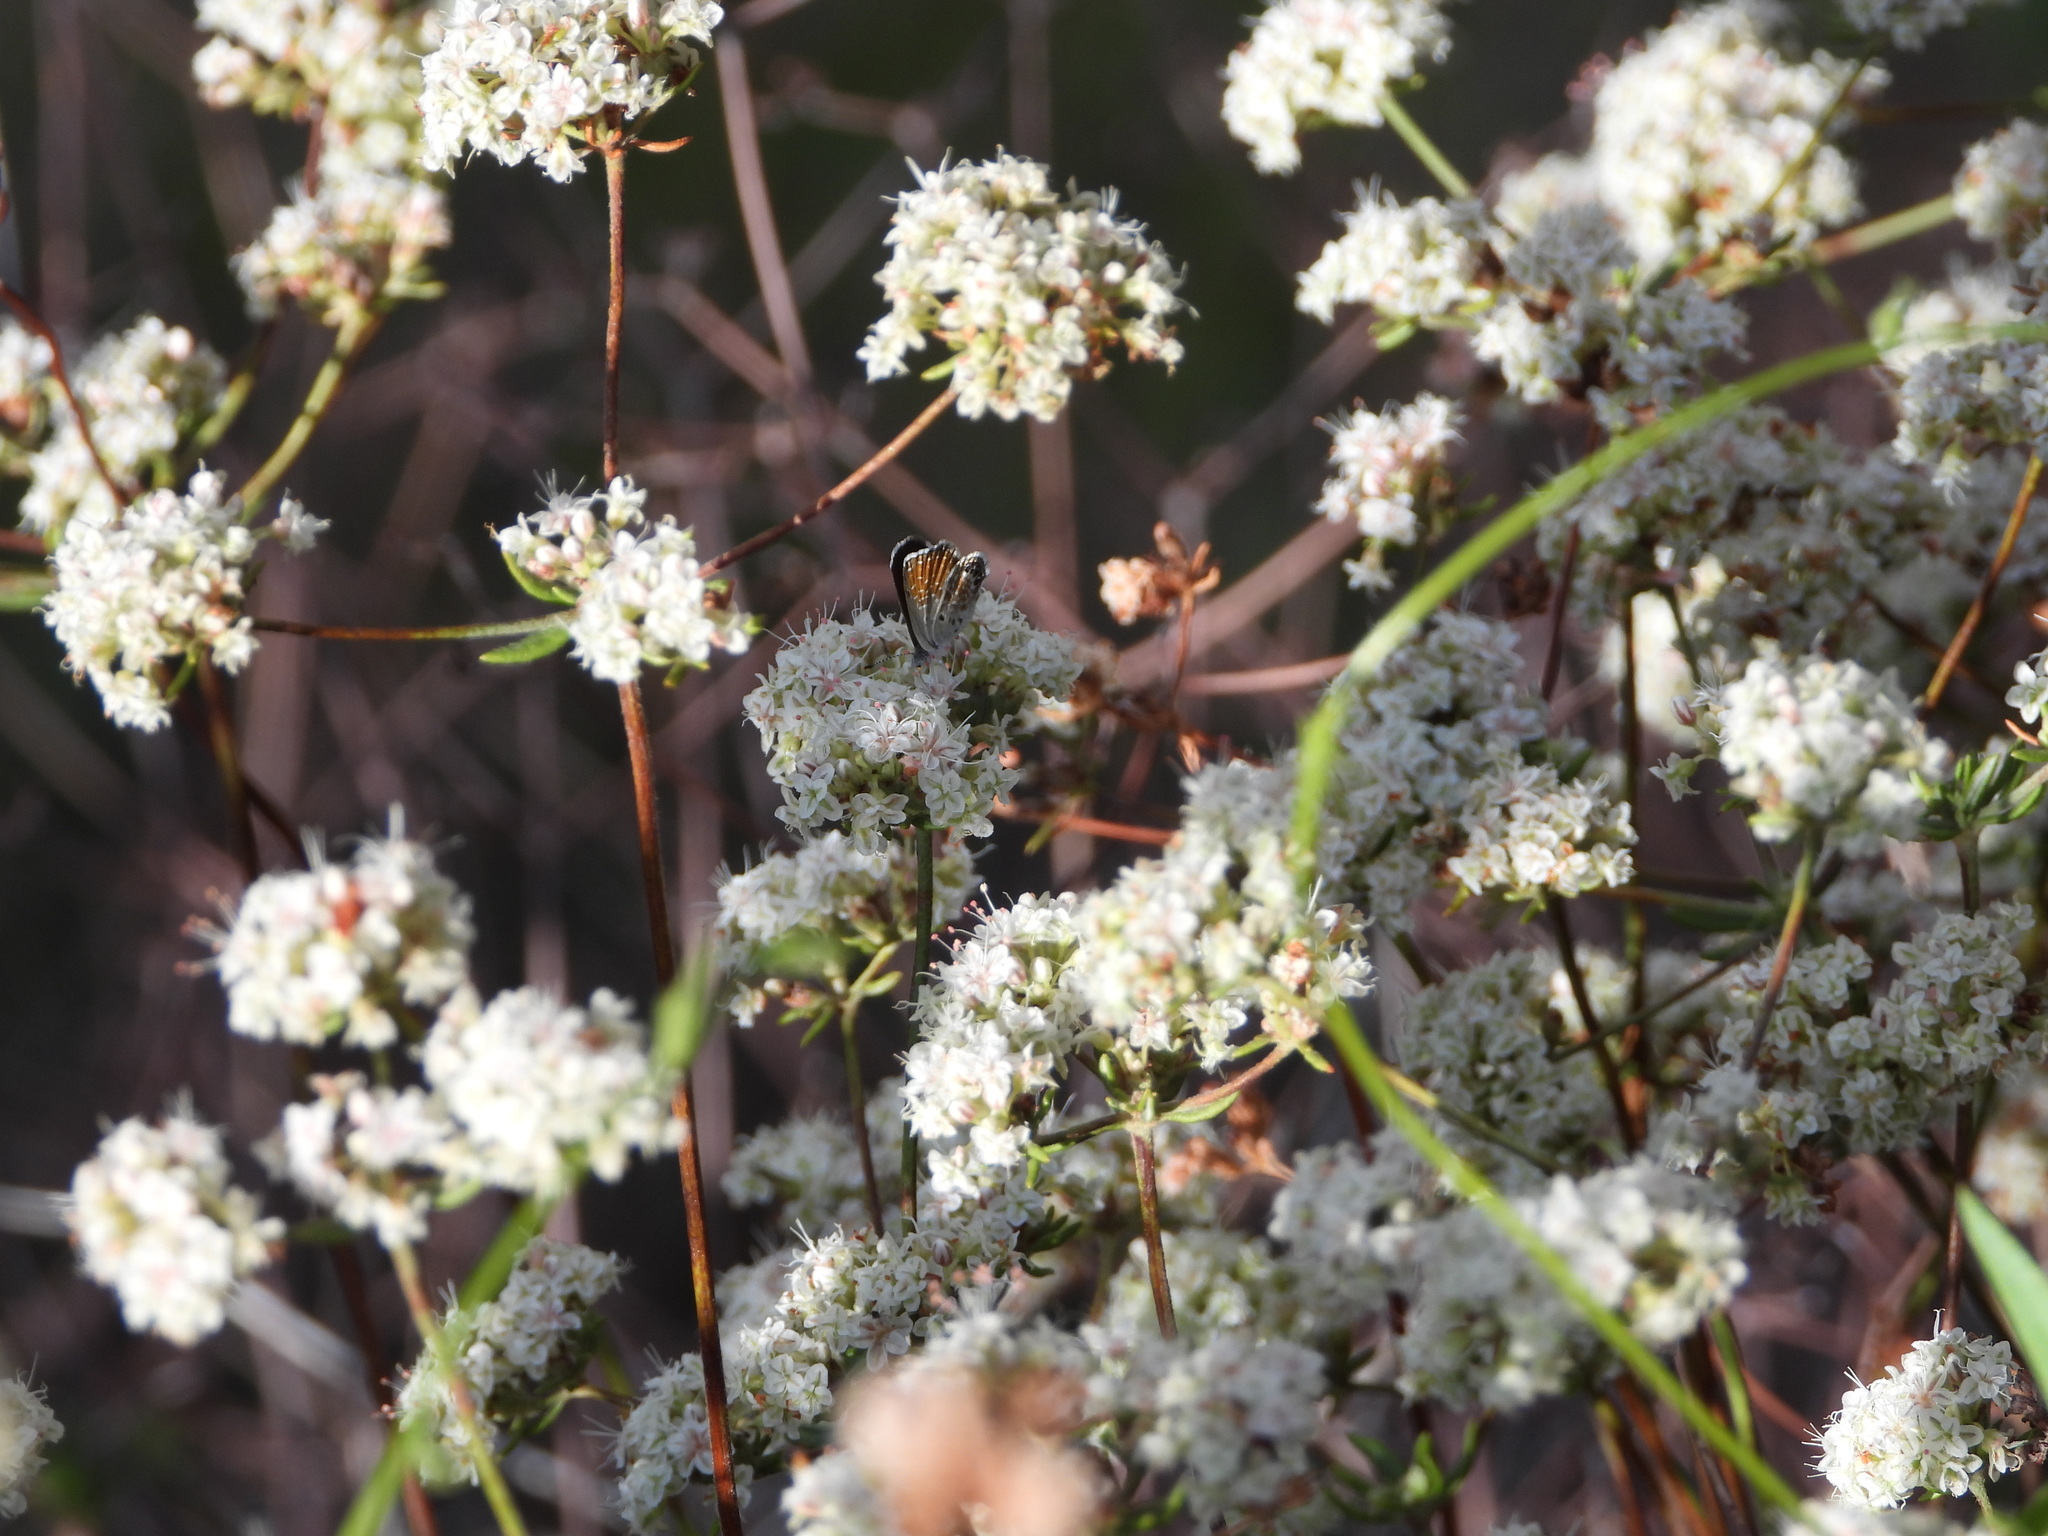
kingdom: Animalia
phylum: Arthropoda
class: Insecta
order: Lepidoptera
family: Lycaenidae
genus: Brephidium
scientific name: Brephidium exilis
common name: Pygmy blue
